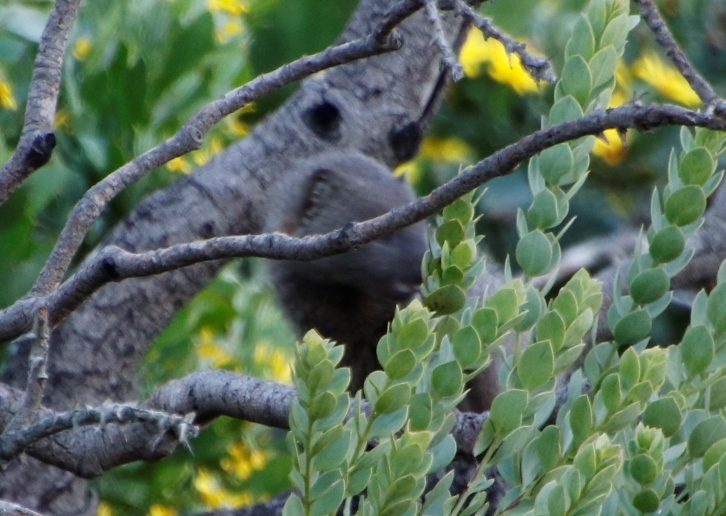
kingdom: Animalia
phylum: Chordata
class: Mammalia
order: Carnivora
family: Herpestidae
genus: Galerella
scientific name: Galerella pulverulenta
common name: Cape gray mongoose
